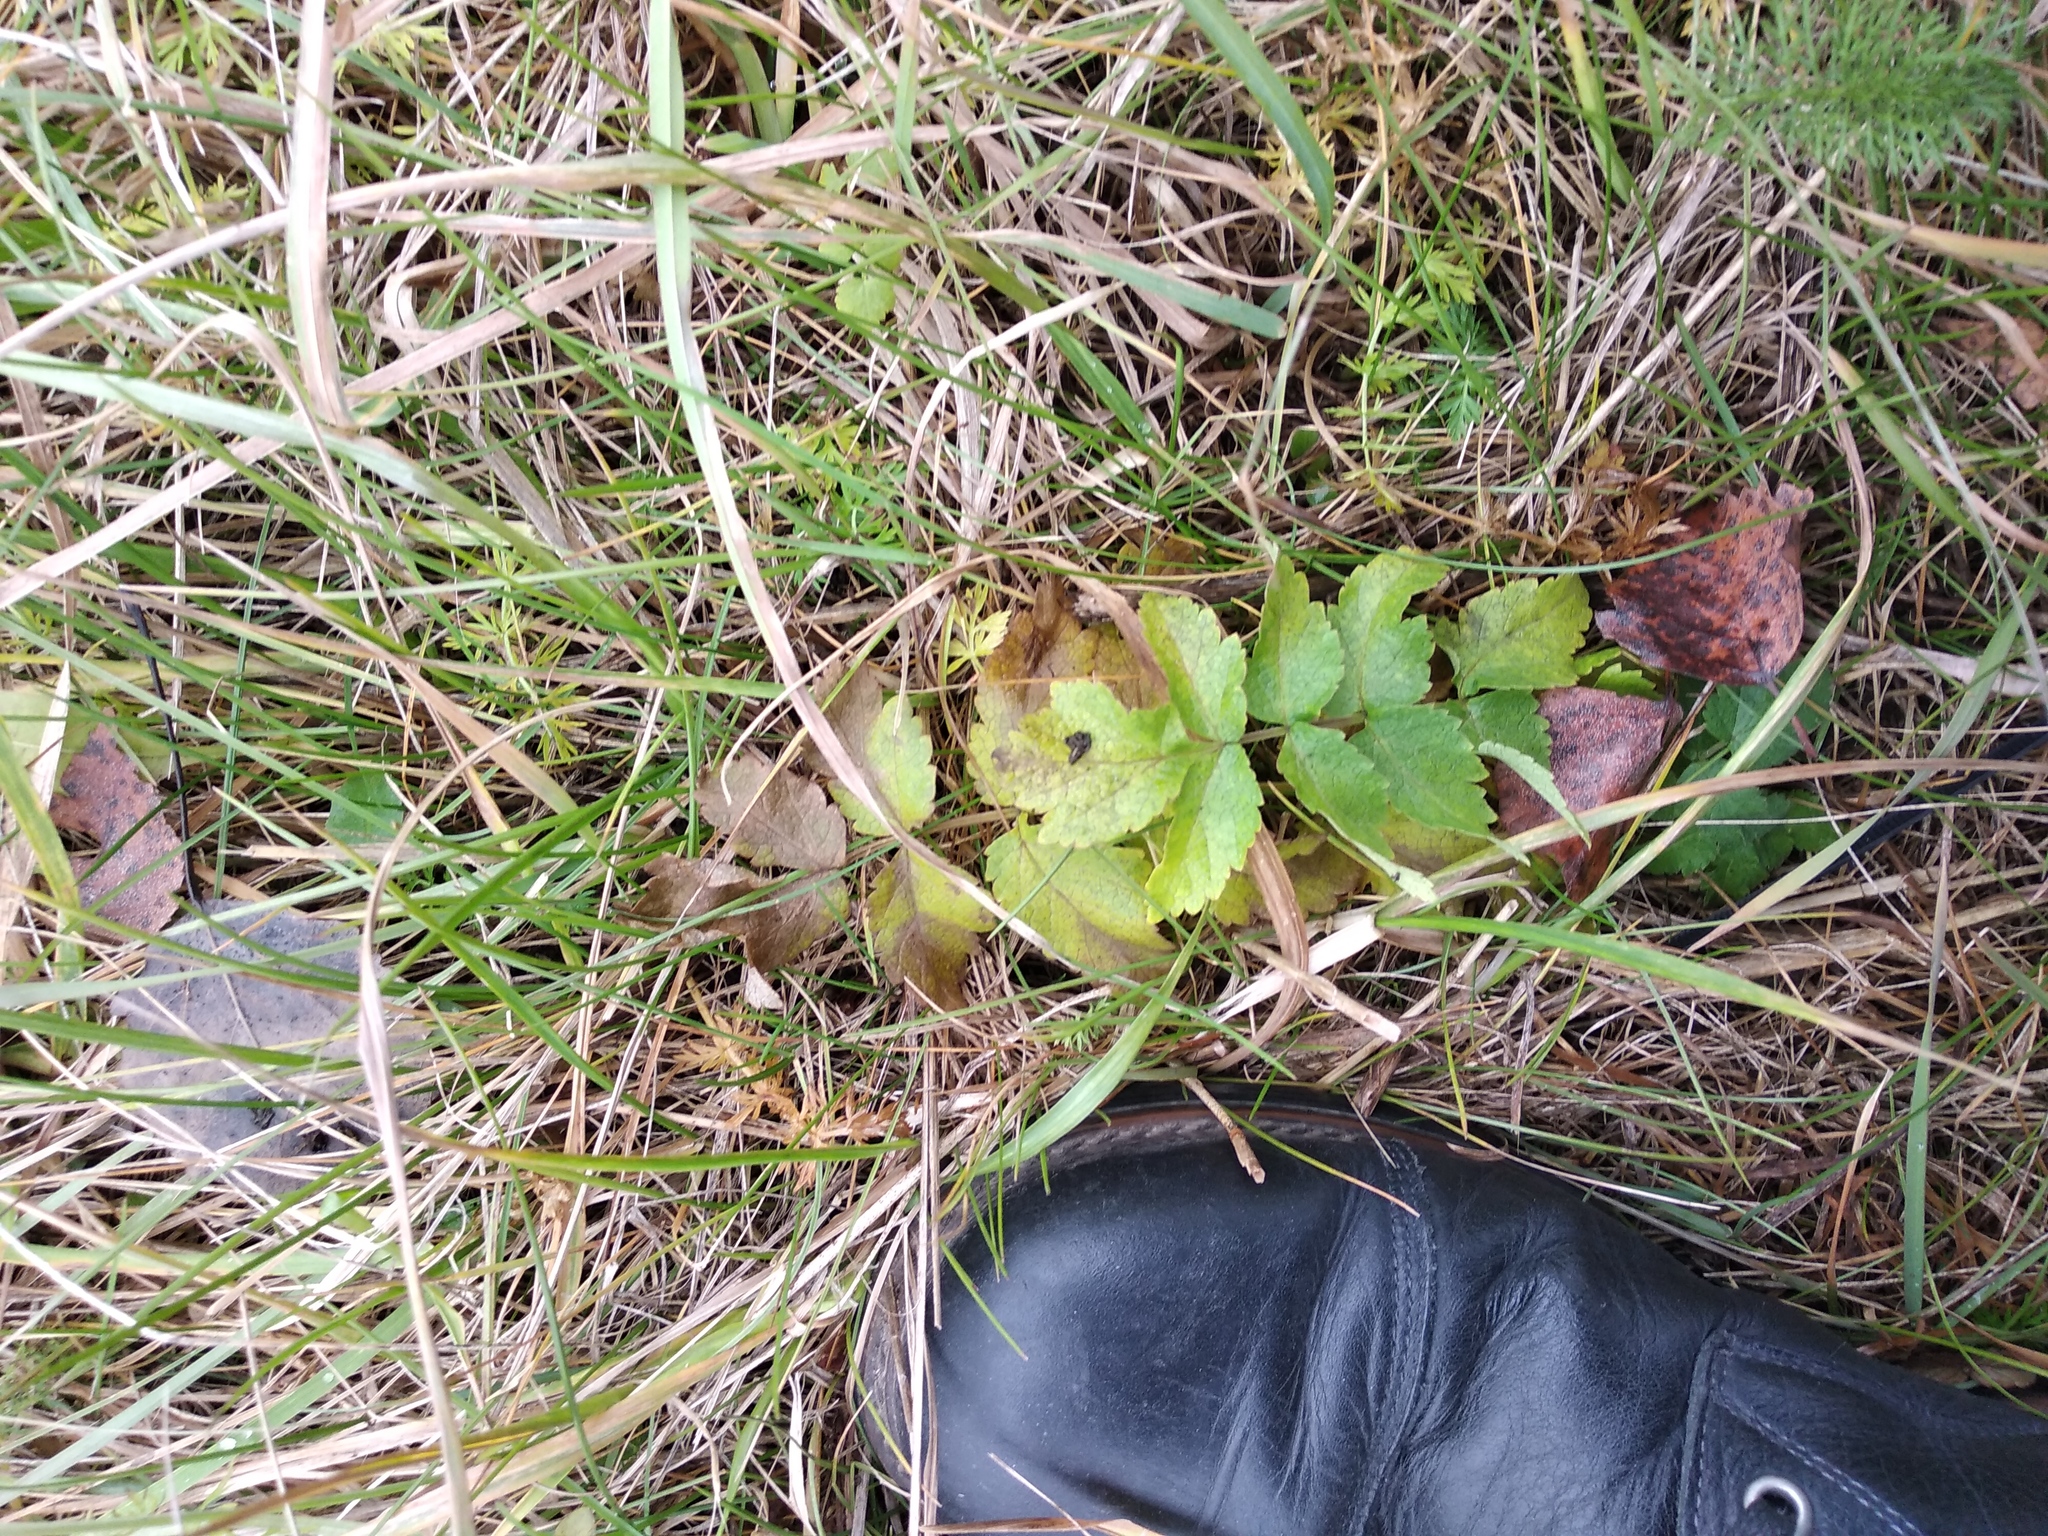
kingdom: Plantae
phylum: Tracheophyta
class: Magnoliopsida
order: Apiales
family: Apiaceae
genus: Pastinaca
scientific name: Pastinaca sativa
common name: Wild parsnip
